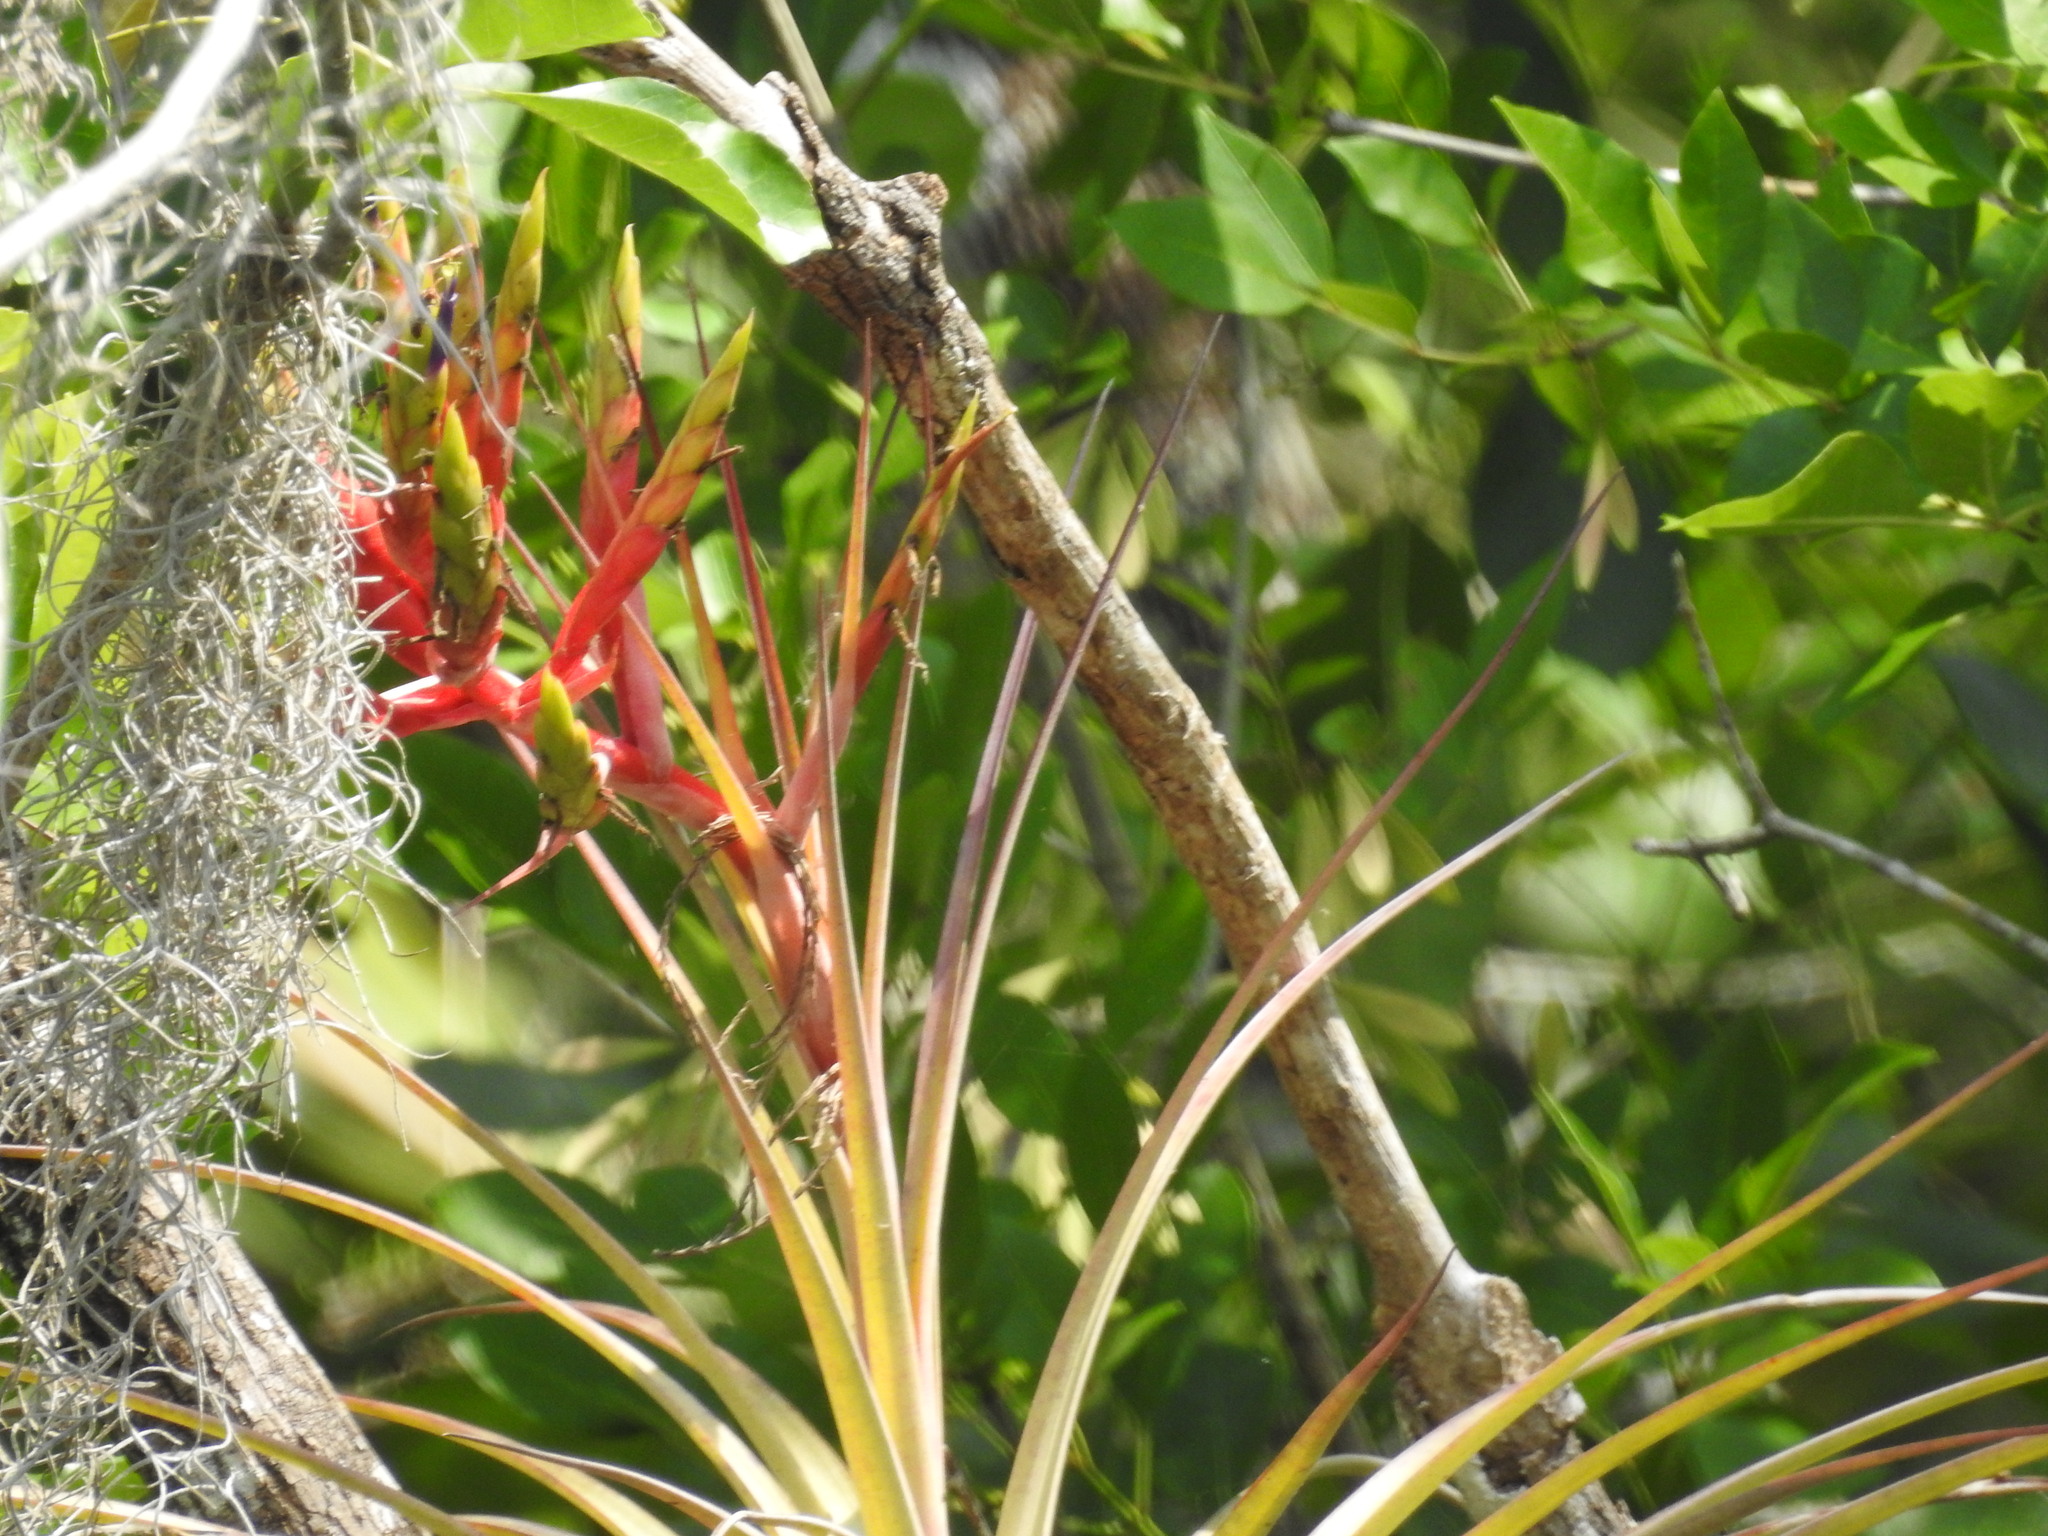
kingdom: Plantae
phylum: Tracheophyta
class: Liliopsida
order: Poales
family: Bromeliaceae
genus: Tillandsia
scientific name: Tillandsia fasciculata
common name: Giant airplant
